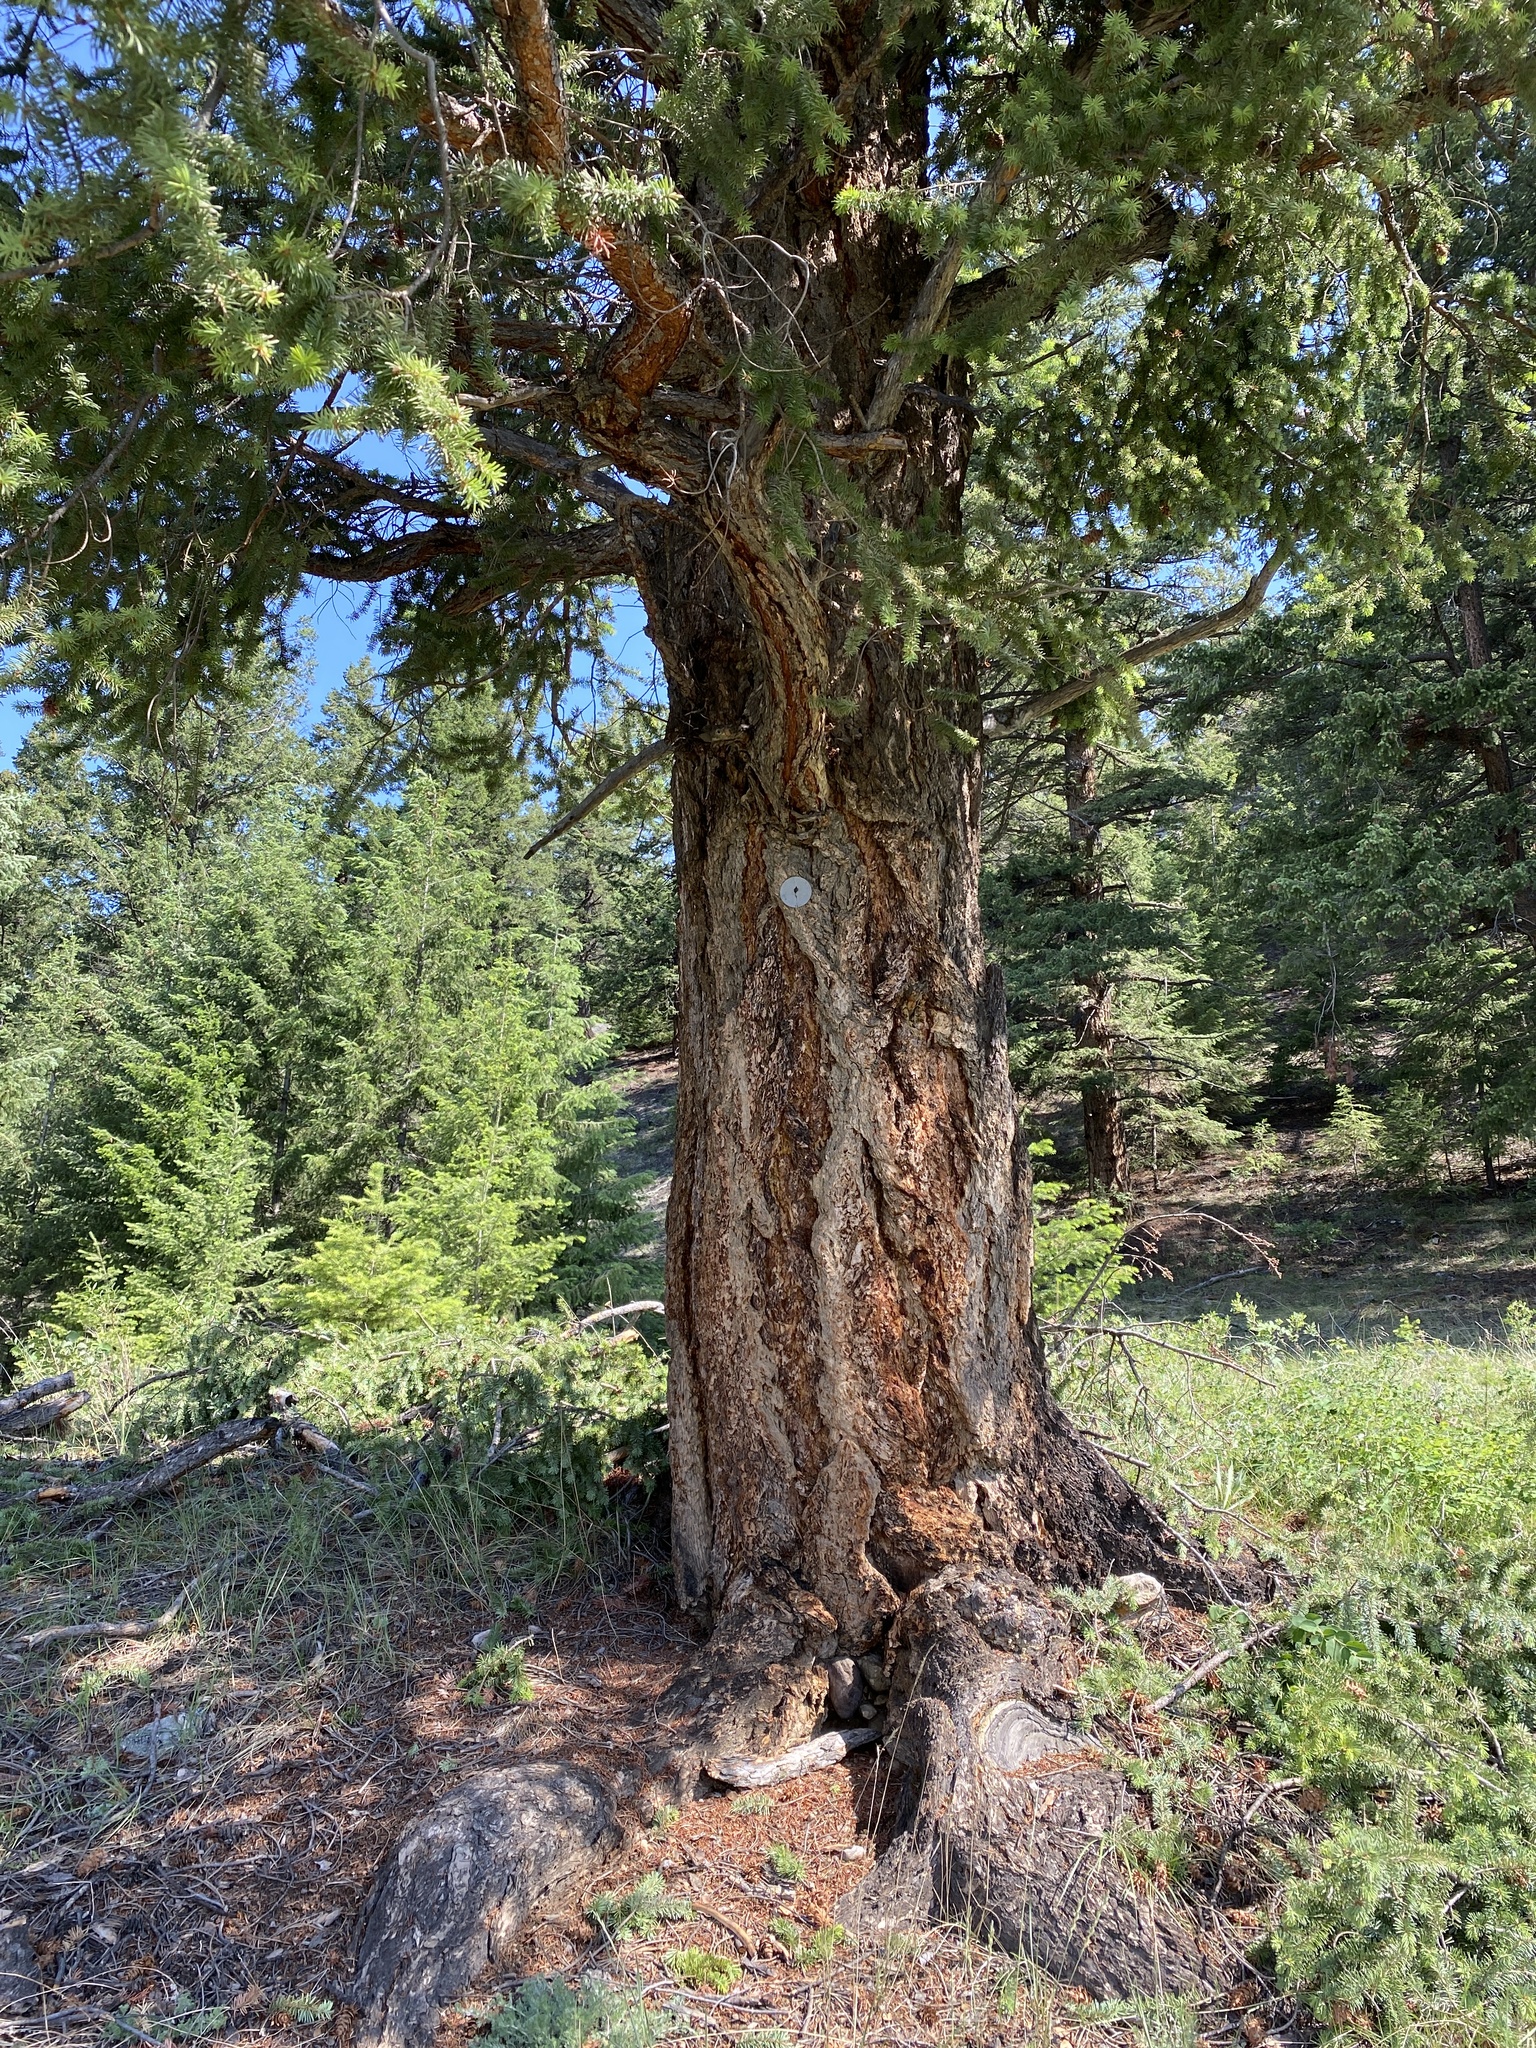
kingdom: Plantae
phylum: Tracheophyta
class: Pinopsida
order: Pinales
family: Pinaceae
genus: Pseudotsuga
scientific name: Pseudotsuga menziesii
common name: Douglas fir
